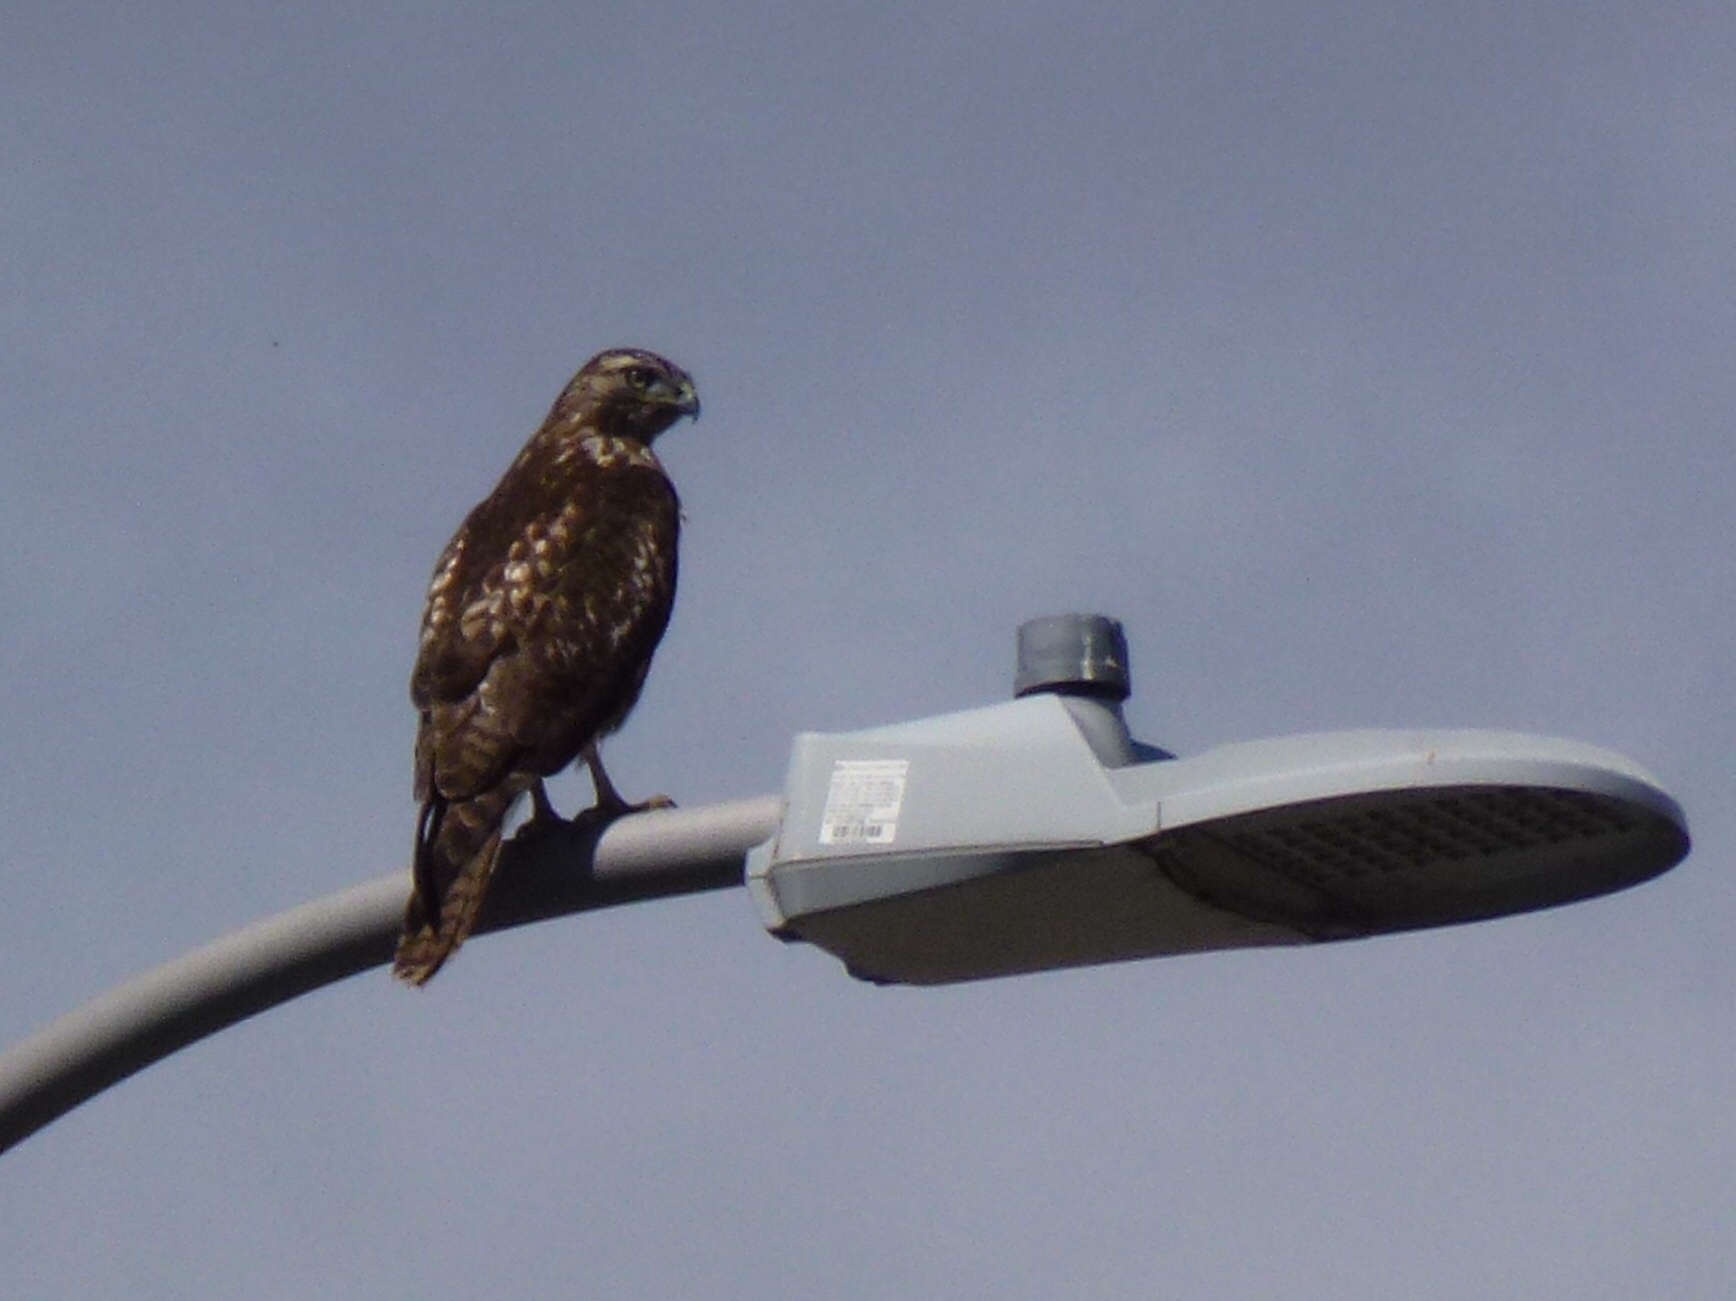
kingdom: Animalia
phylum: Chordata
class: Aves
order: Accipitriformes
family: Accipitridae
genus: Buteo
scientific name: Buteo jamaicensis
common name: Red-tailed hawk
